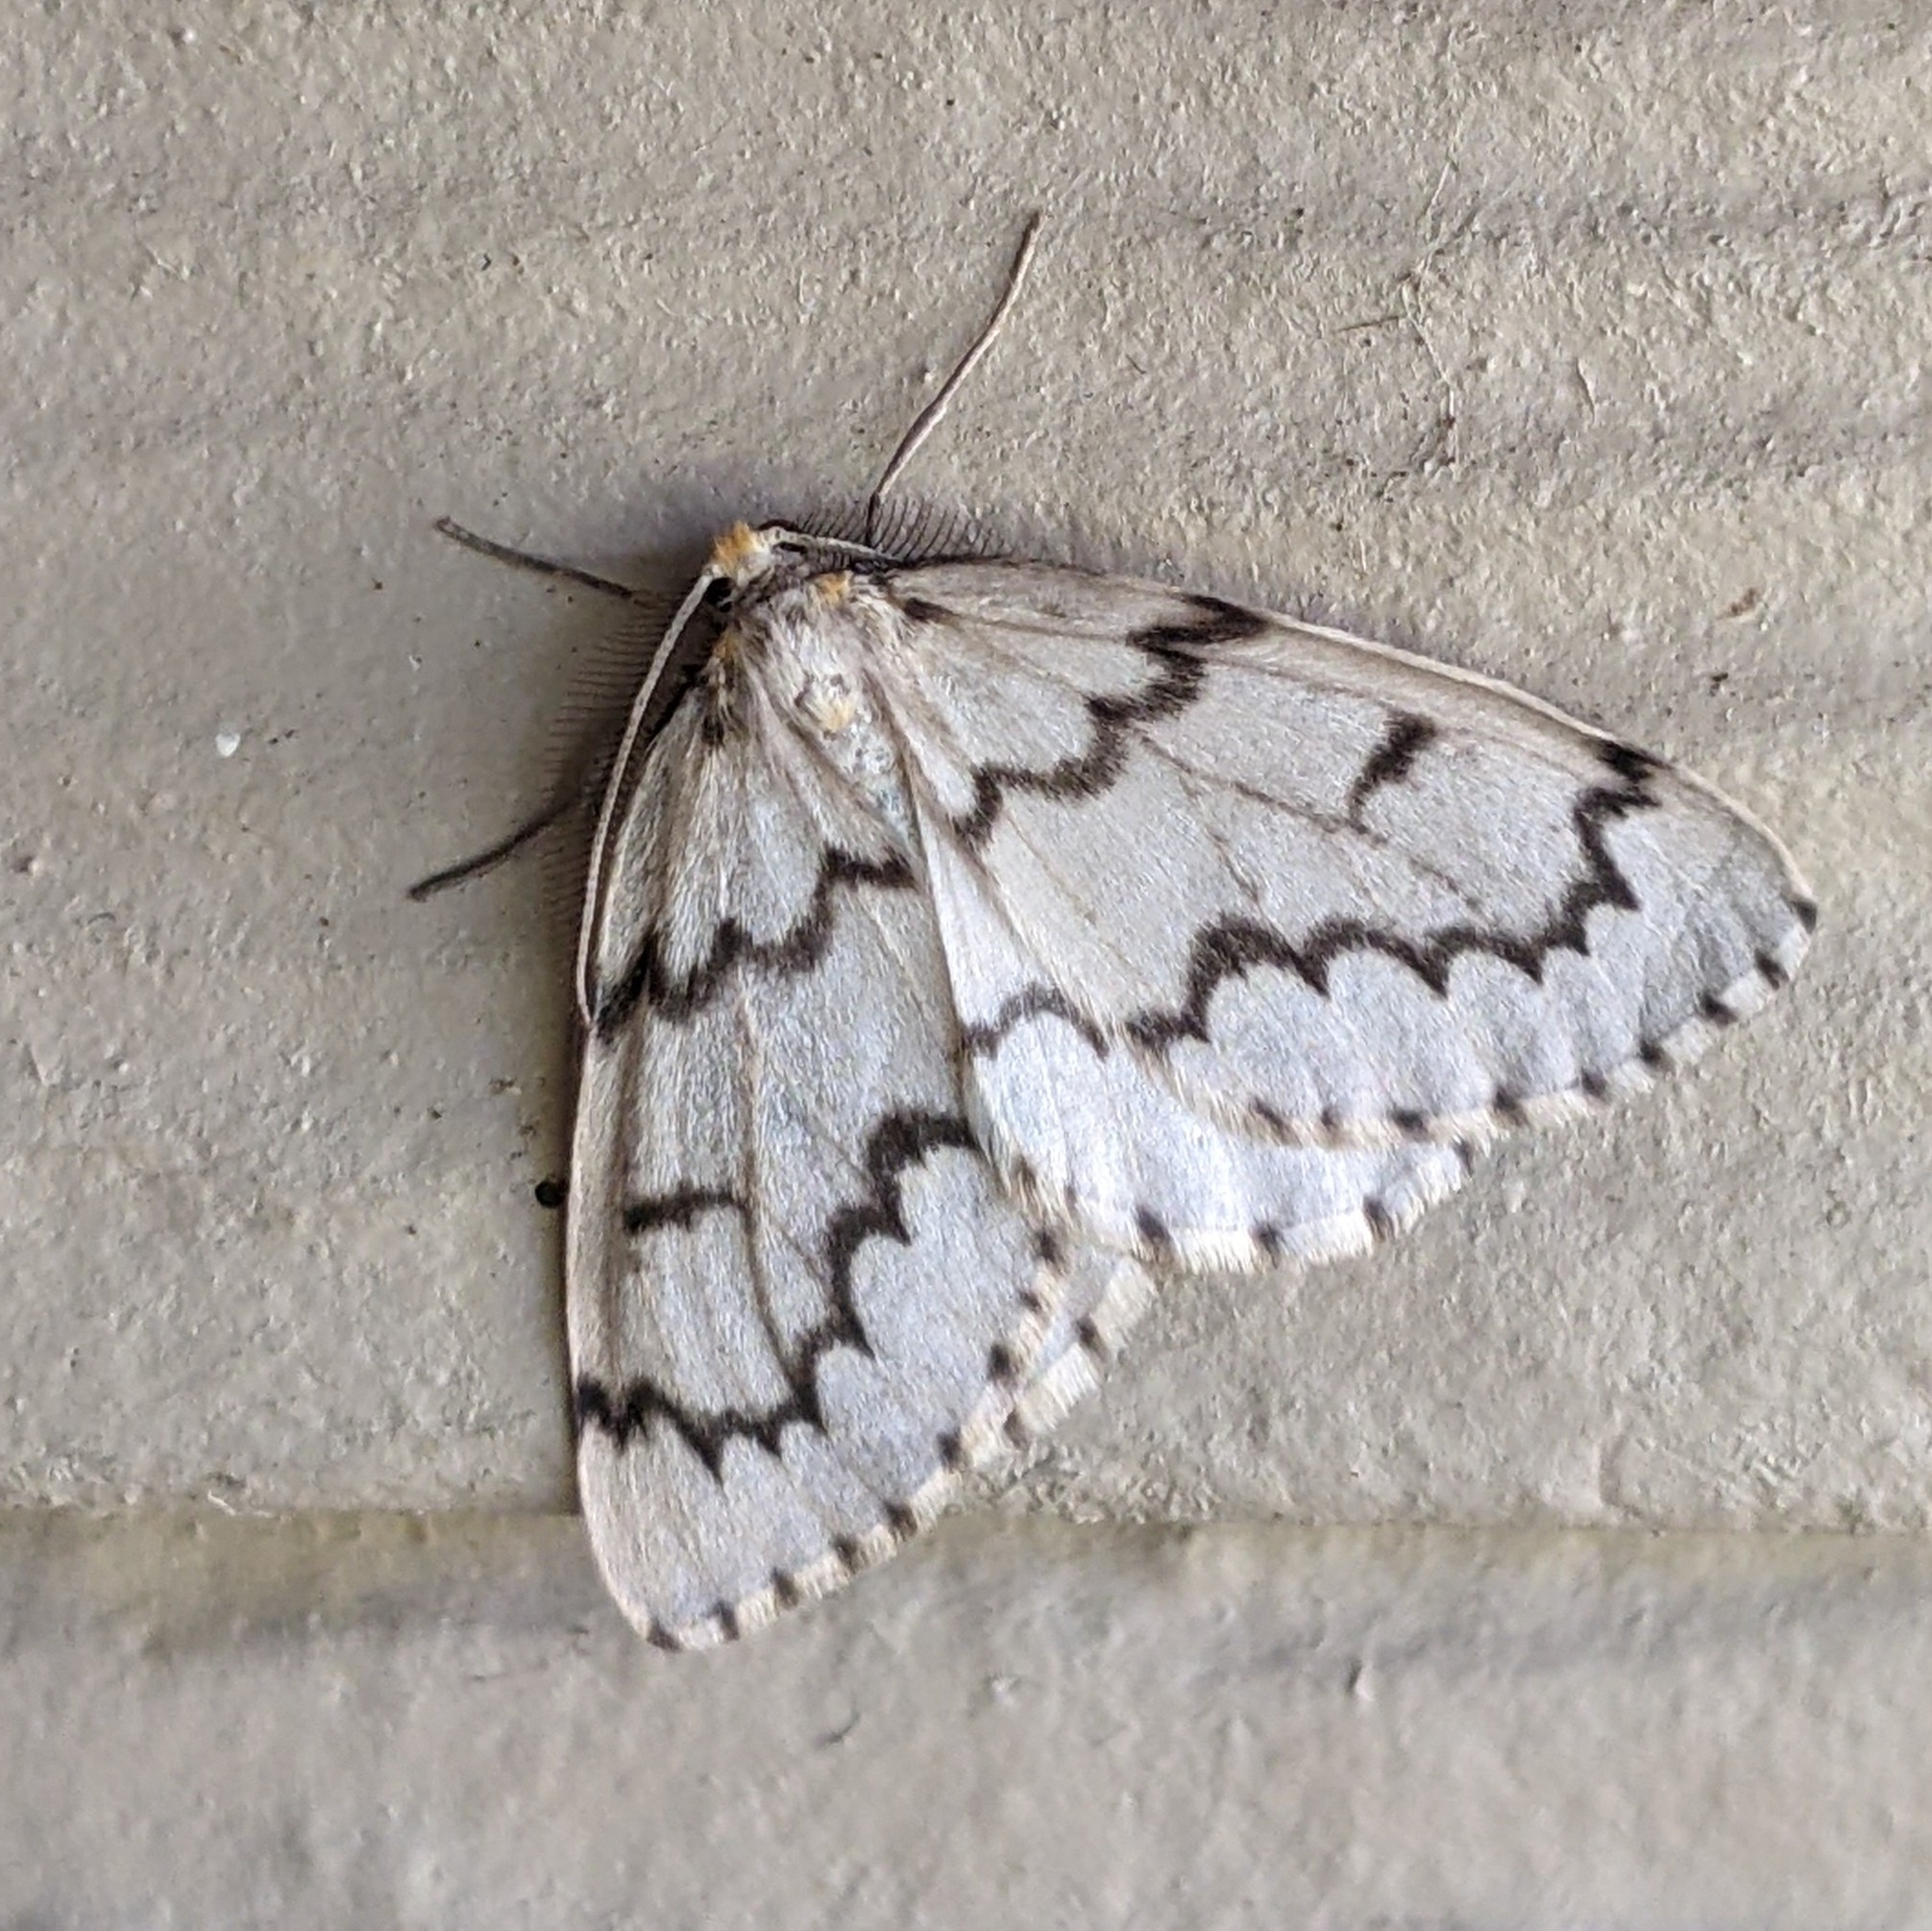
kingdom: Animalia
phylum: Arthropoda
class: Insecta
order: Lepidoptera
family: Geometridae
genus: Nepytia
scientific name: Nepytia phantasmaria
